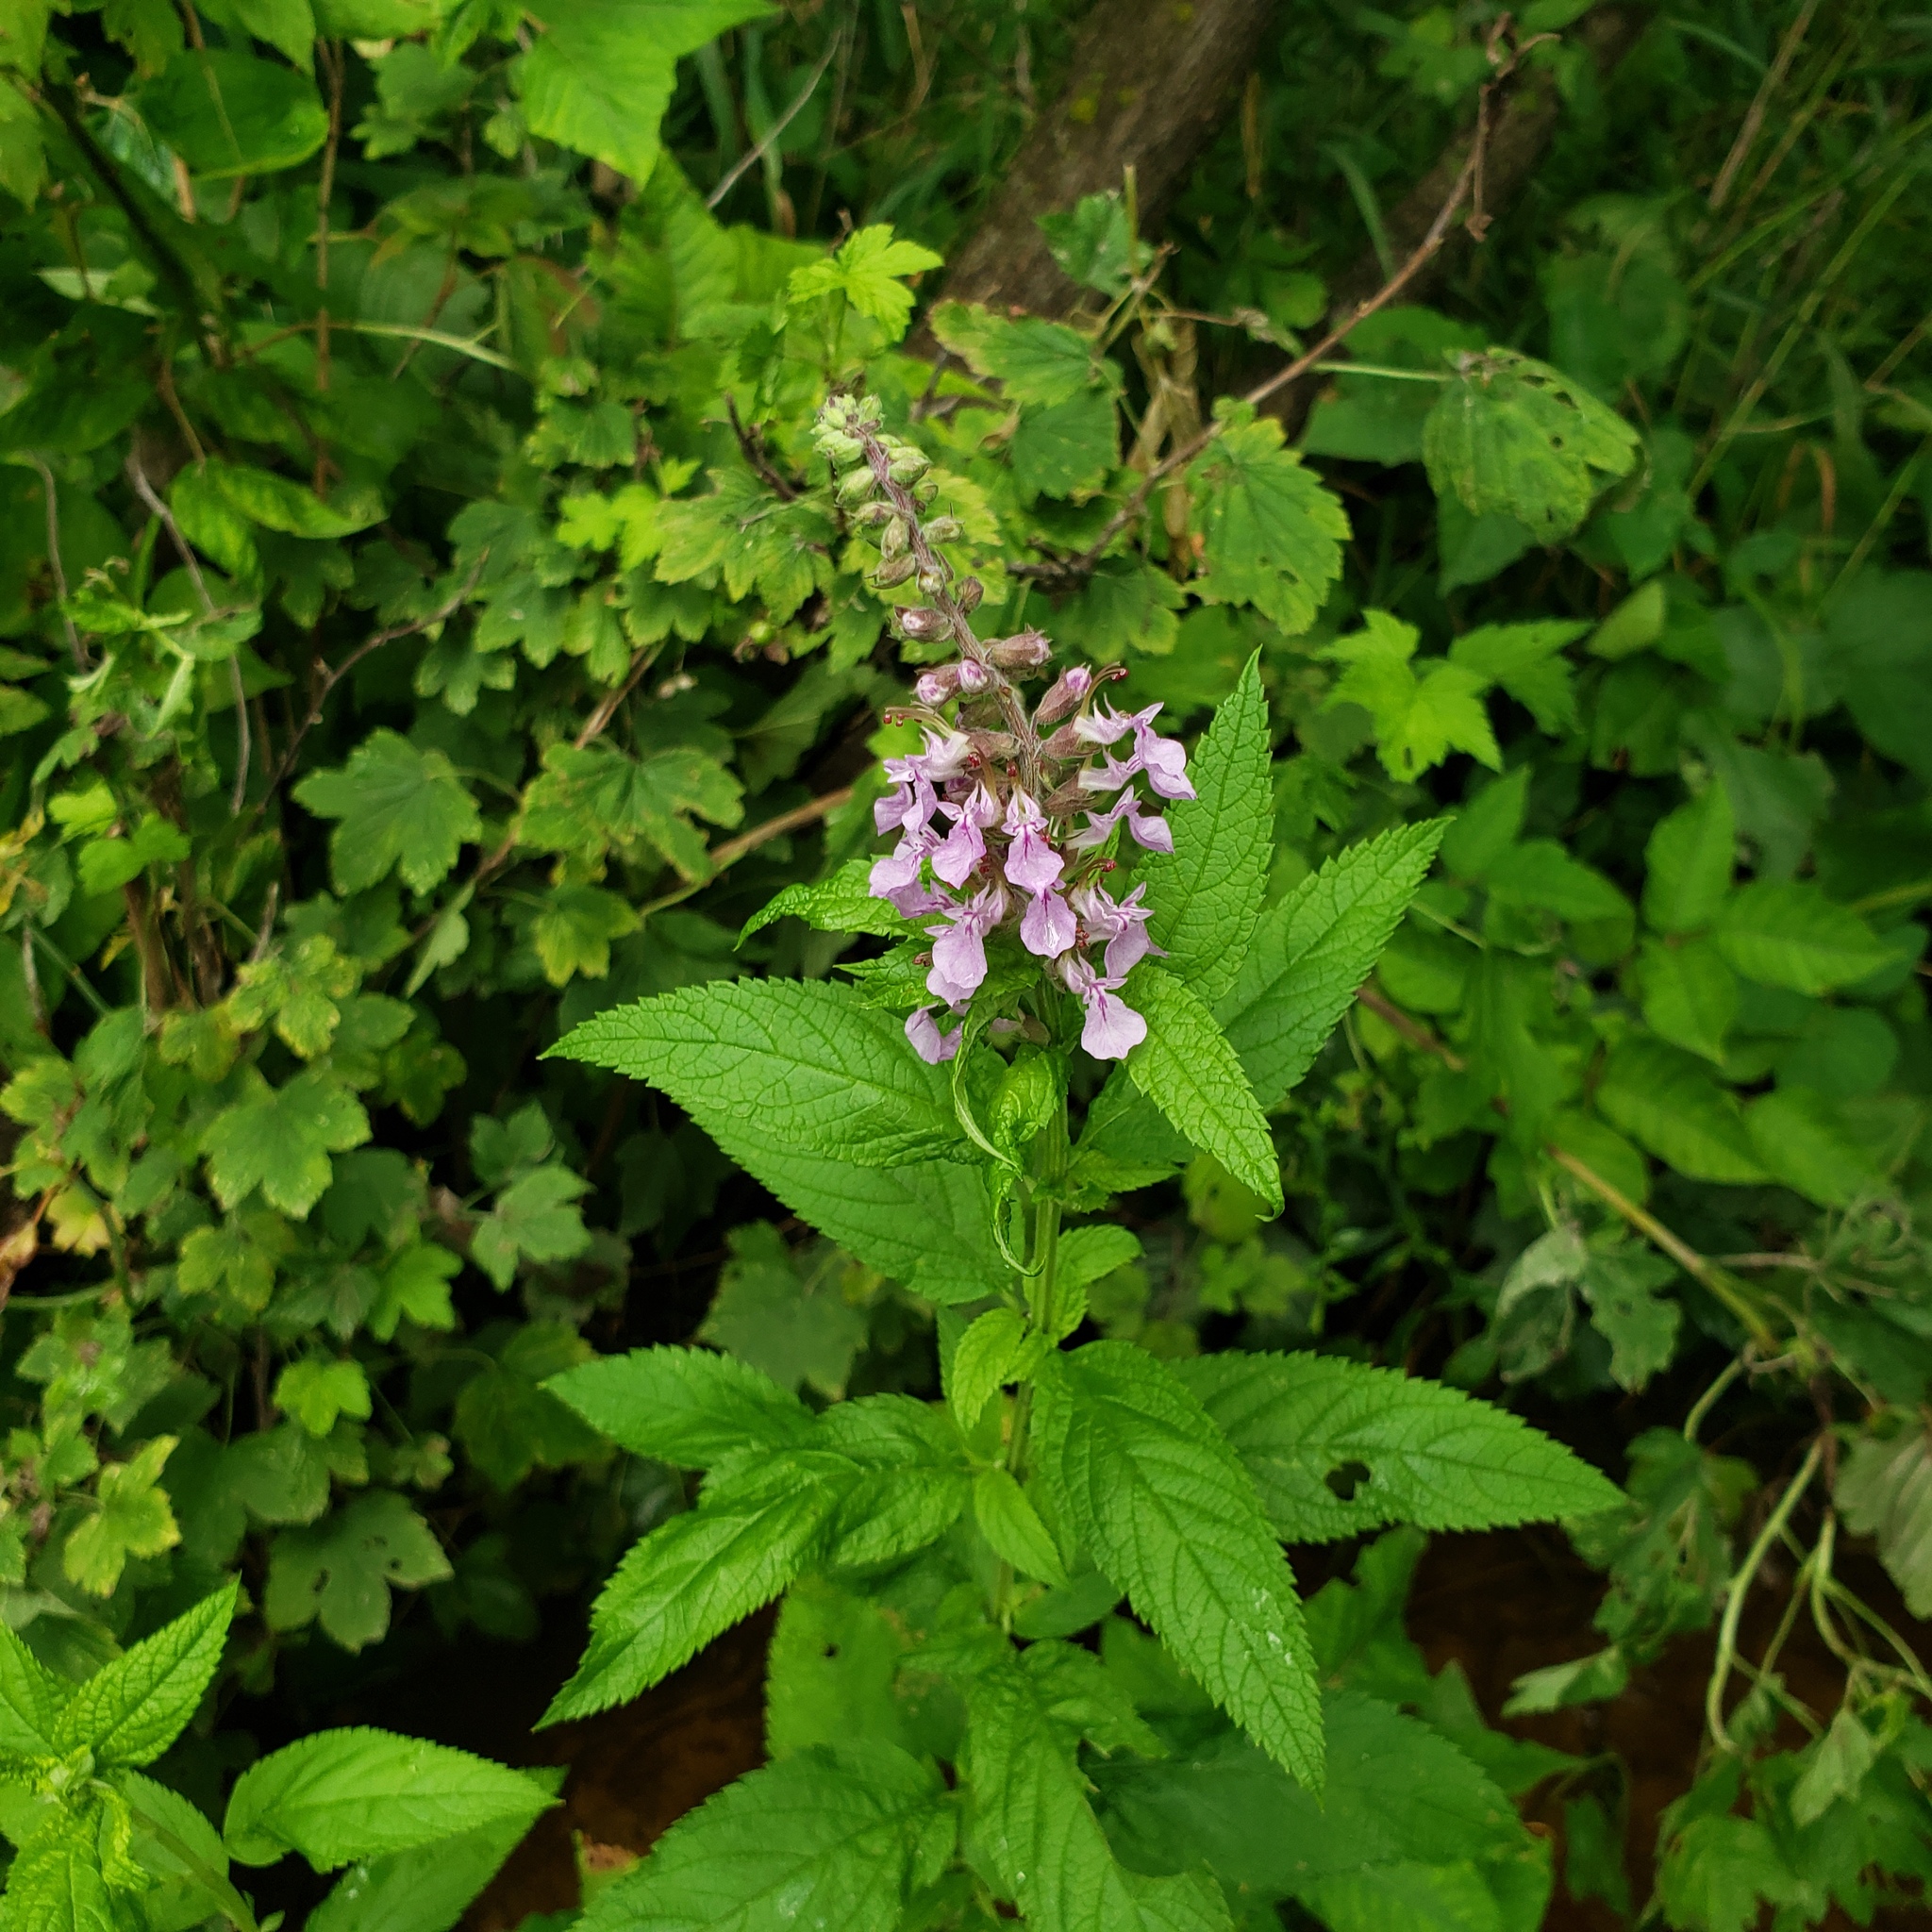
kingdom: Plantae
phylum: Tracheophyta
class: Magnoliopsida
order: Lamiales
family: Lamiaceae
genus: Teucrium
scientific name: Teucrium canadense
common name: American germander
